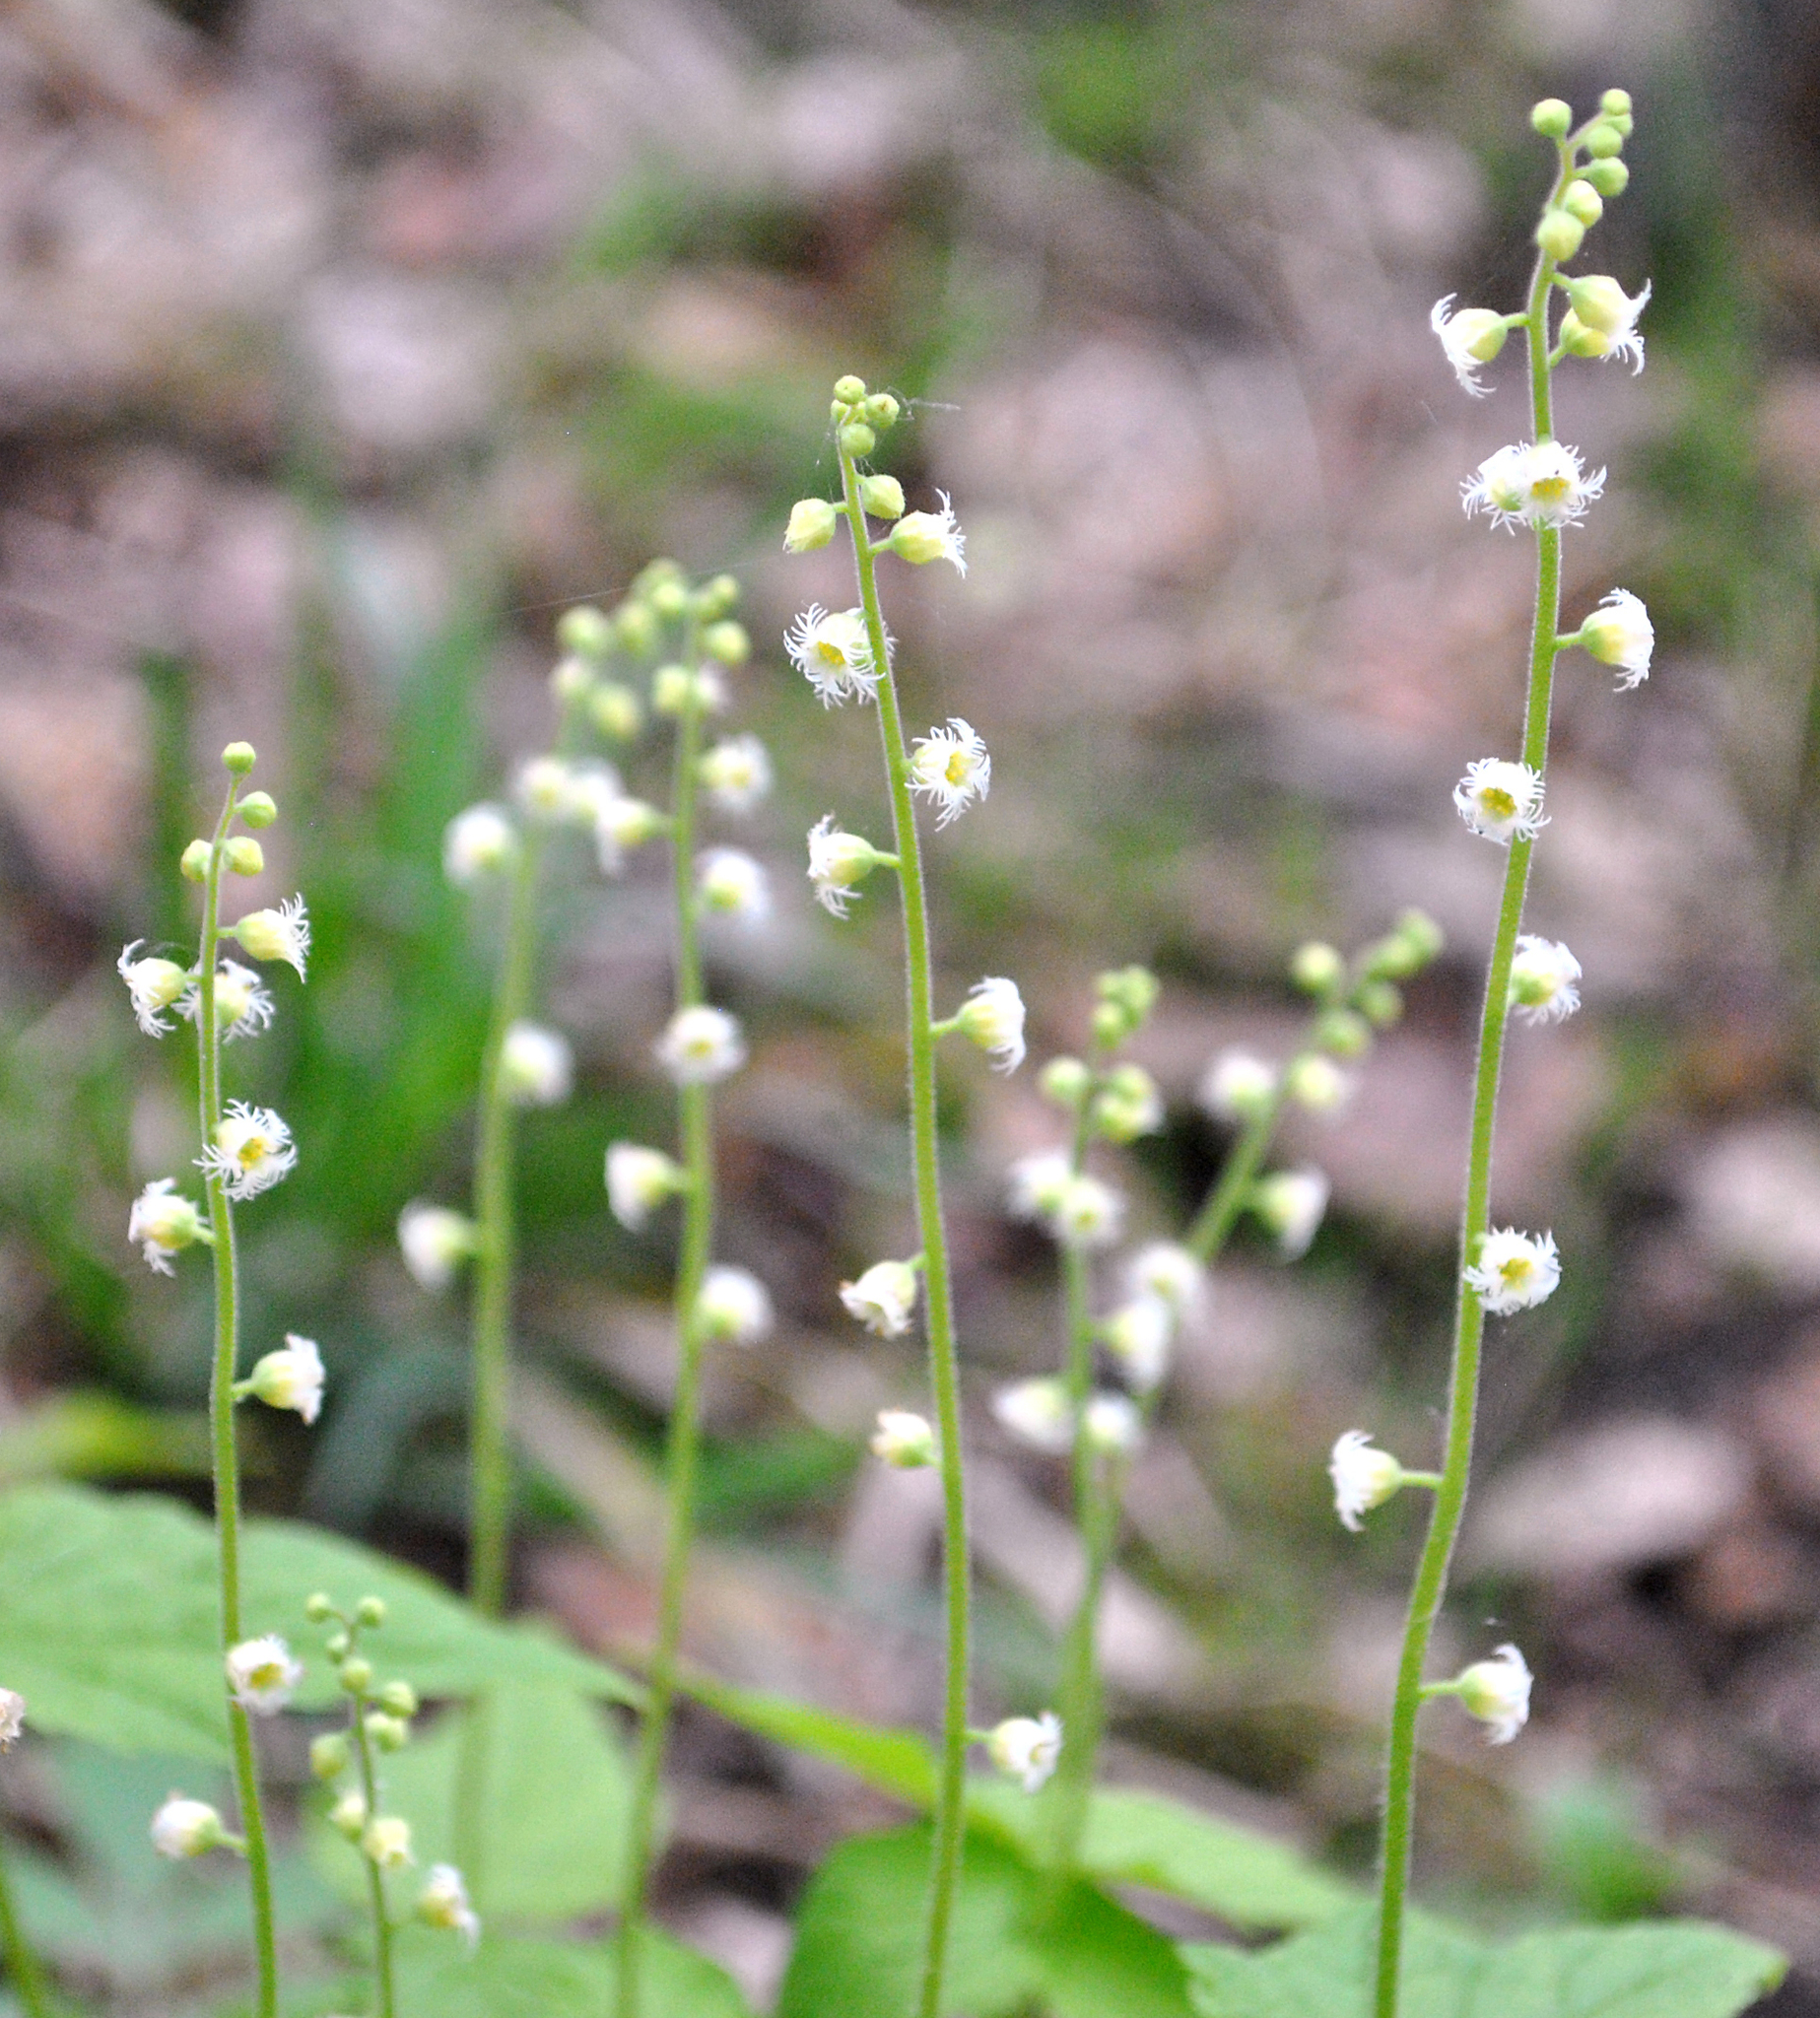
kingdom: Plantae
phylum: Tracheophyta
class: Magnoliopsida
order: Saxifragales
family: Saxifragaceae
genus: Mitella
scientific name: Mitella diphylla
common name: Coolwort
